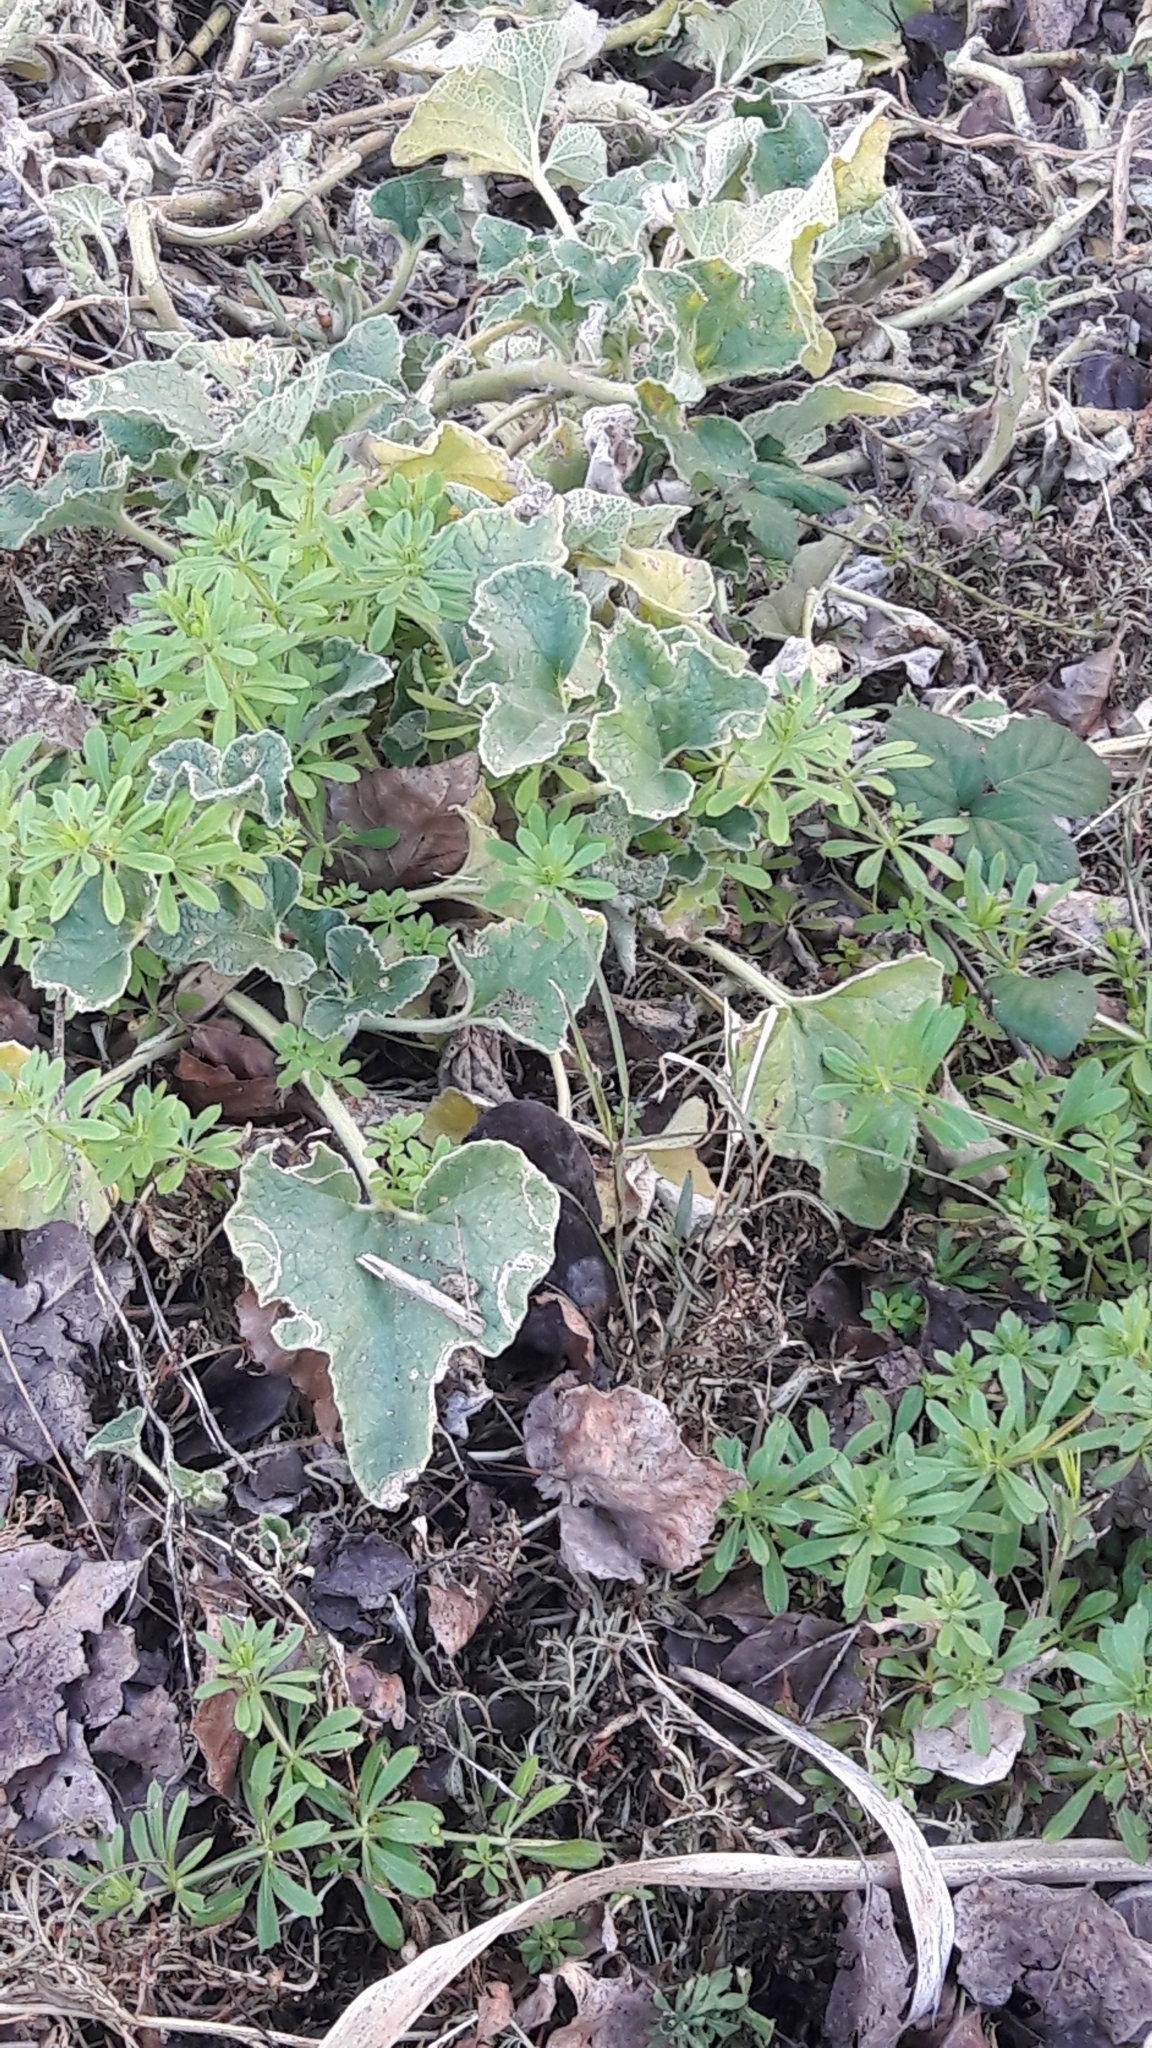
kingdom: Plantae
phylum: Tracheophyta
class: Magnoliopsida
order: Cucurbitales
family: Cucurbitaceae
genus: Ecballium
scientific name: Ecballium elaterium
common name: Squirting cucumber
